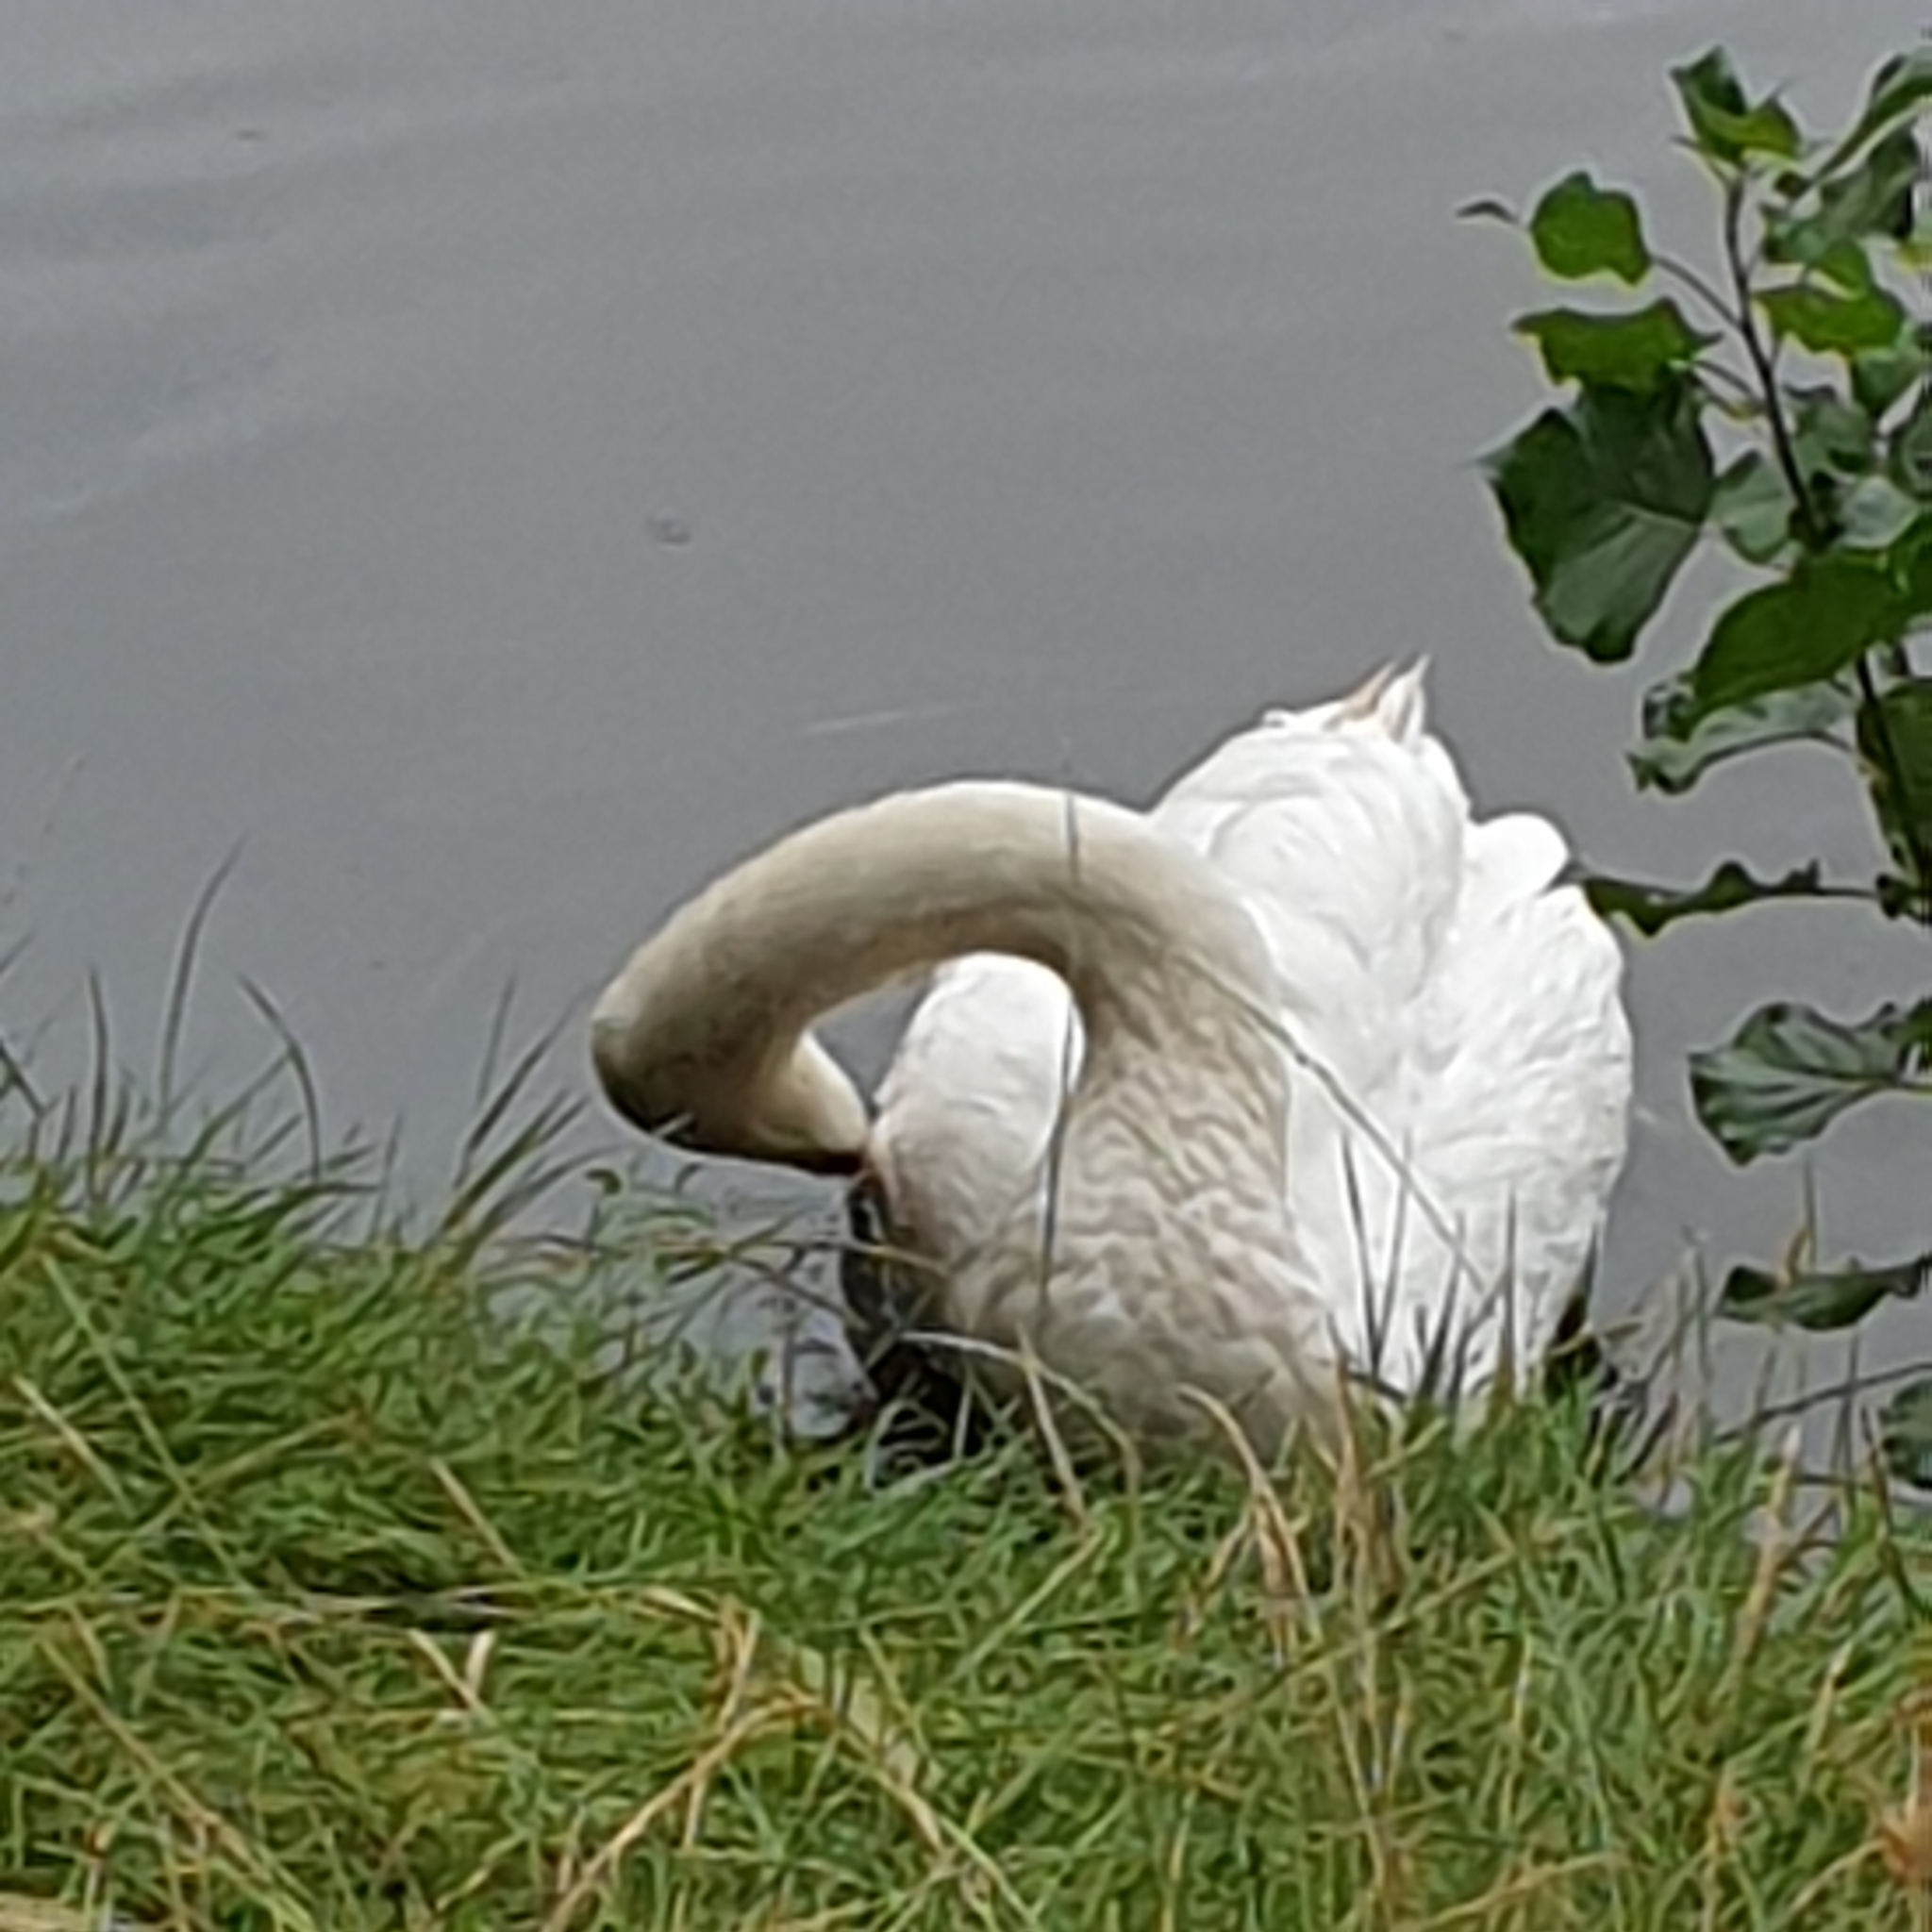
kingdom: Animalia
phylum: Chordata
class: Aves
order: Anseriformes
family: Anatidae
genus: Cygnus
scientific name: Cygnus olor
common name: Mute swan
